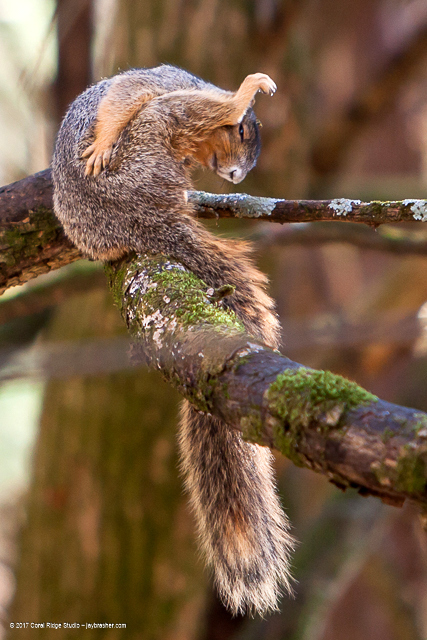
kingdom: Animalia
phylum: Chordata
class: Mammalia
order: Rodentia
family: Sciuridae
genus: Sciurus
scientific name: Sciurus niger
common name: Fox squirrel
